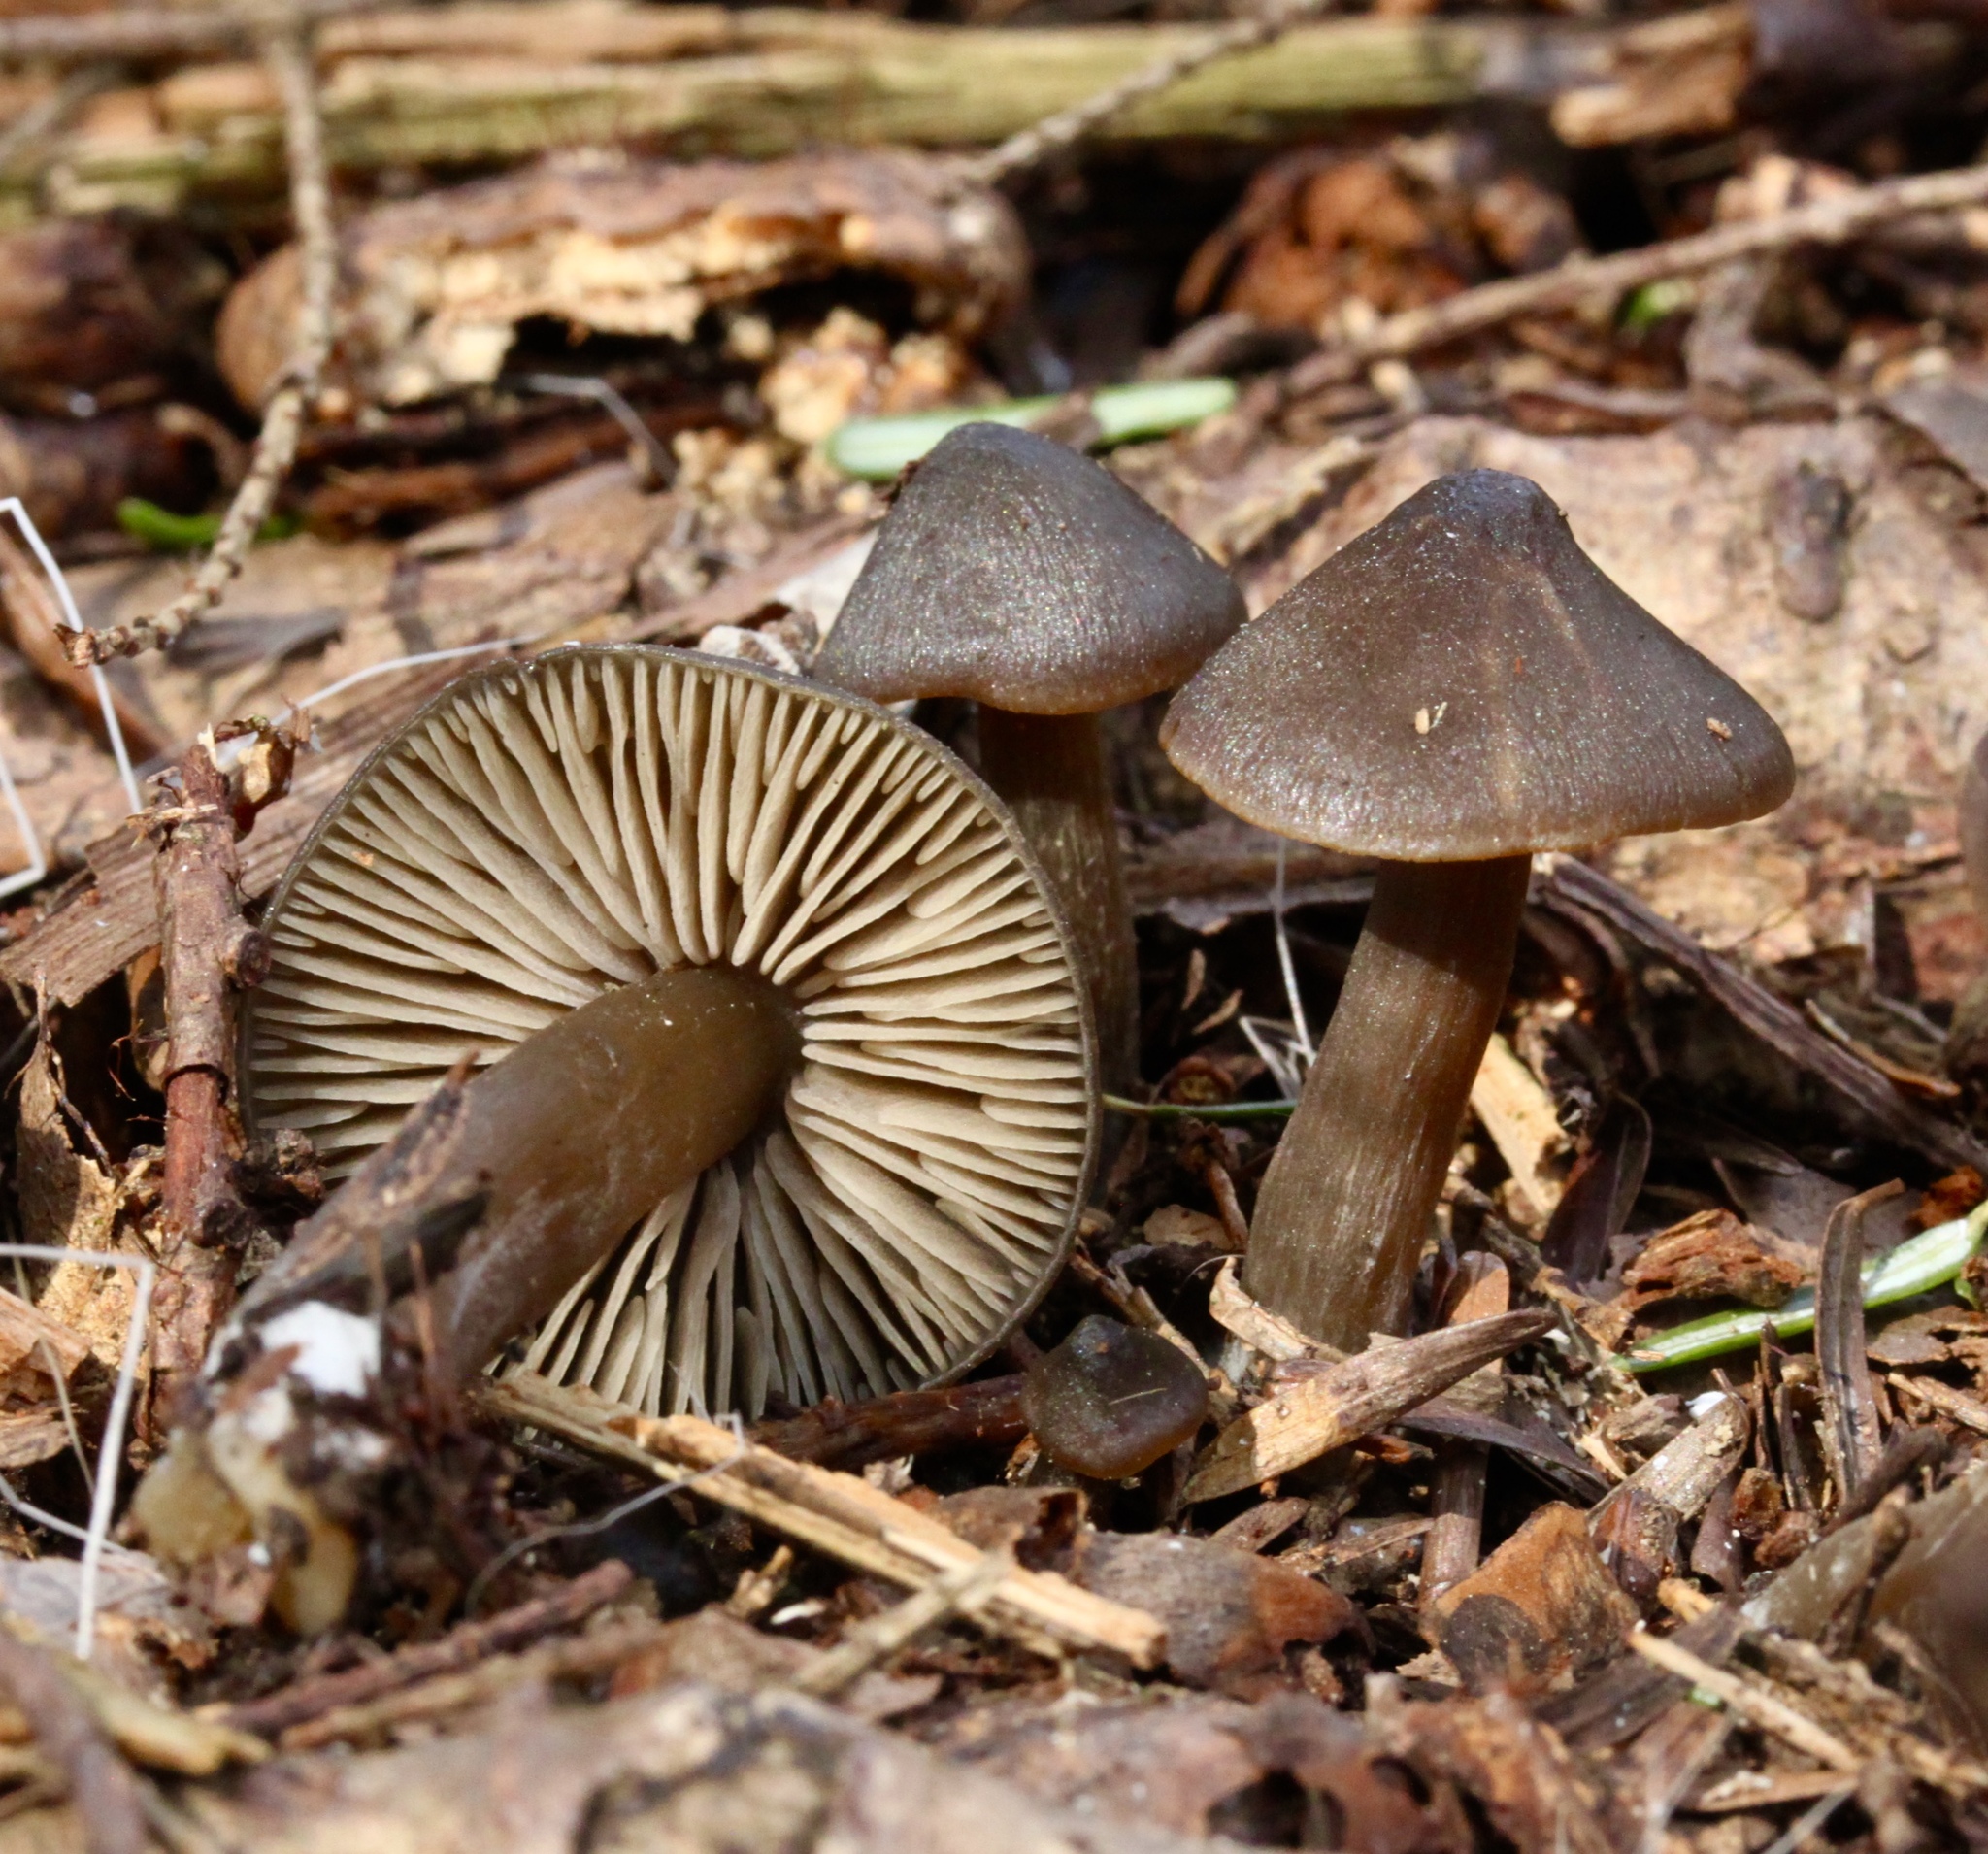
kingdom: Fungi
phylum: Basidiomycota
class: Agaricomycetes
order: Agaricales
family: Entolomataceae
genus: Entoloma
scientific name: Entoloma vernum
